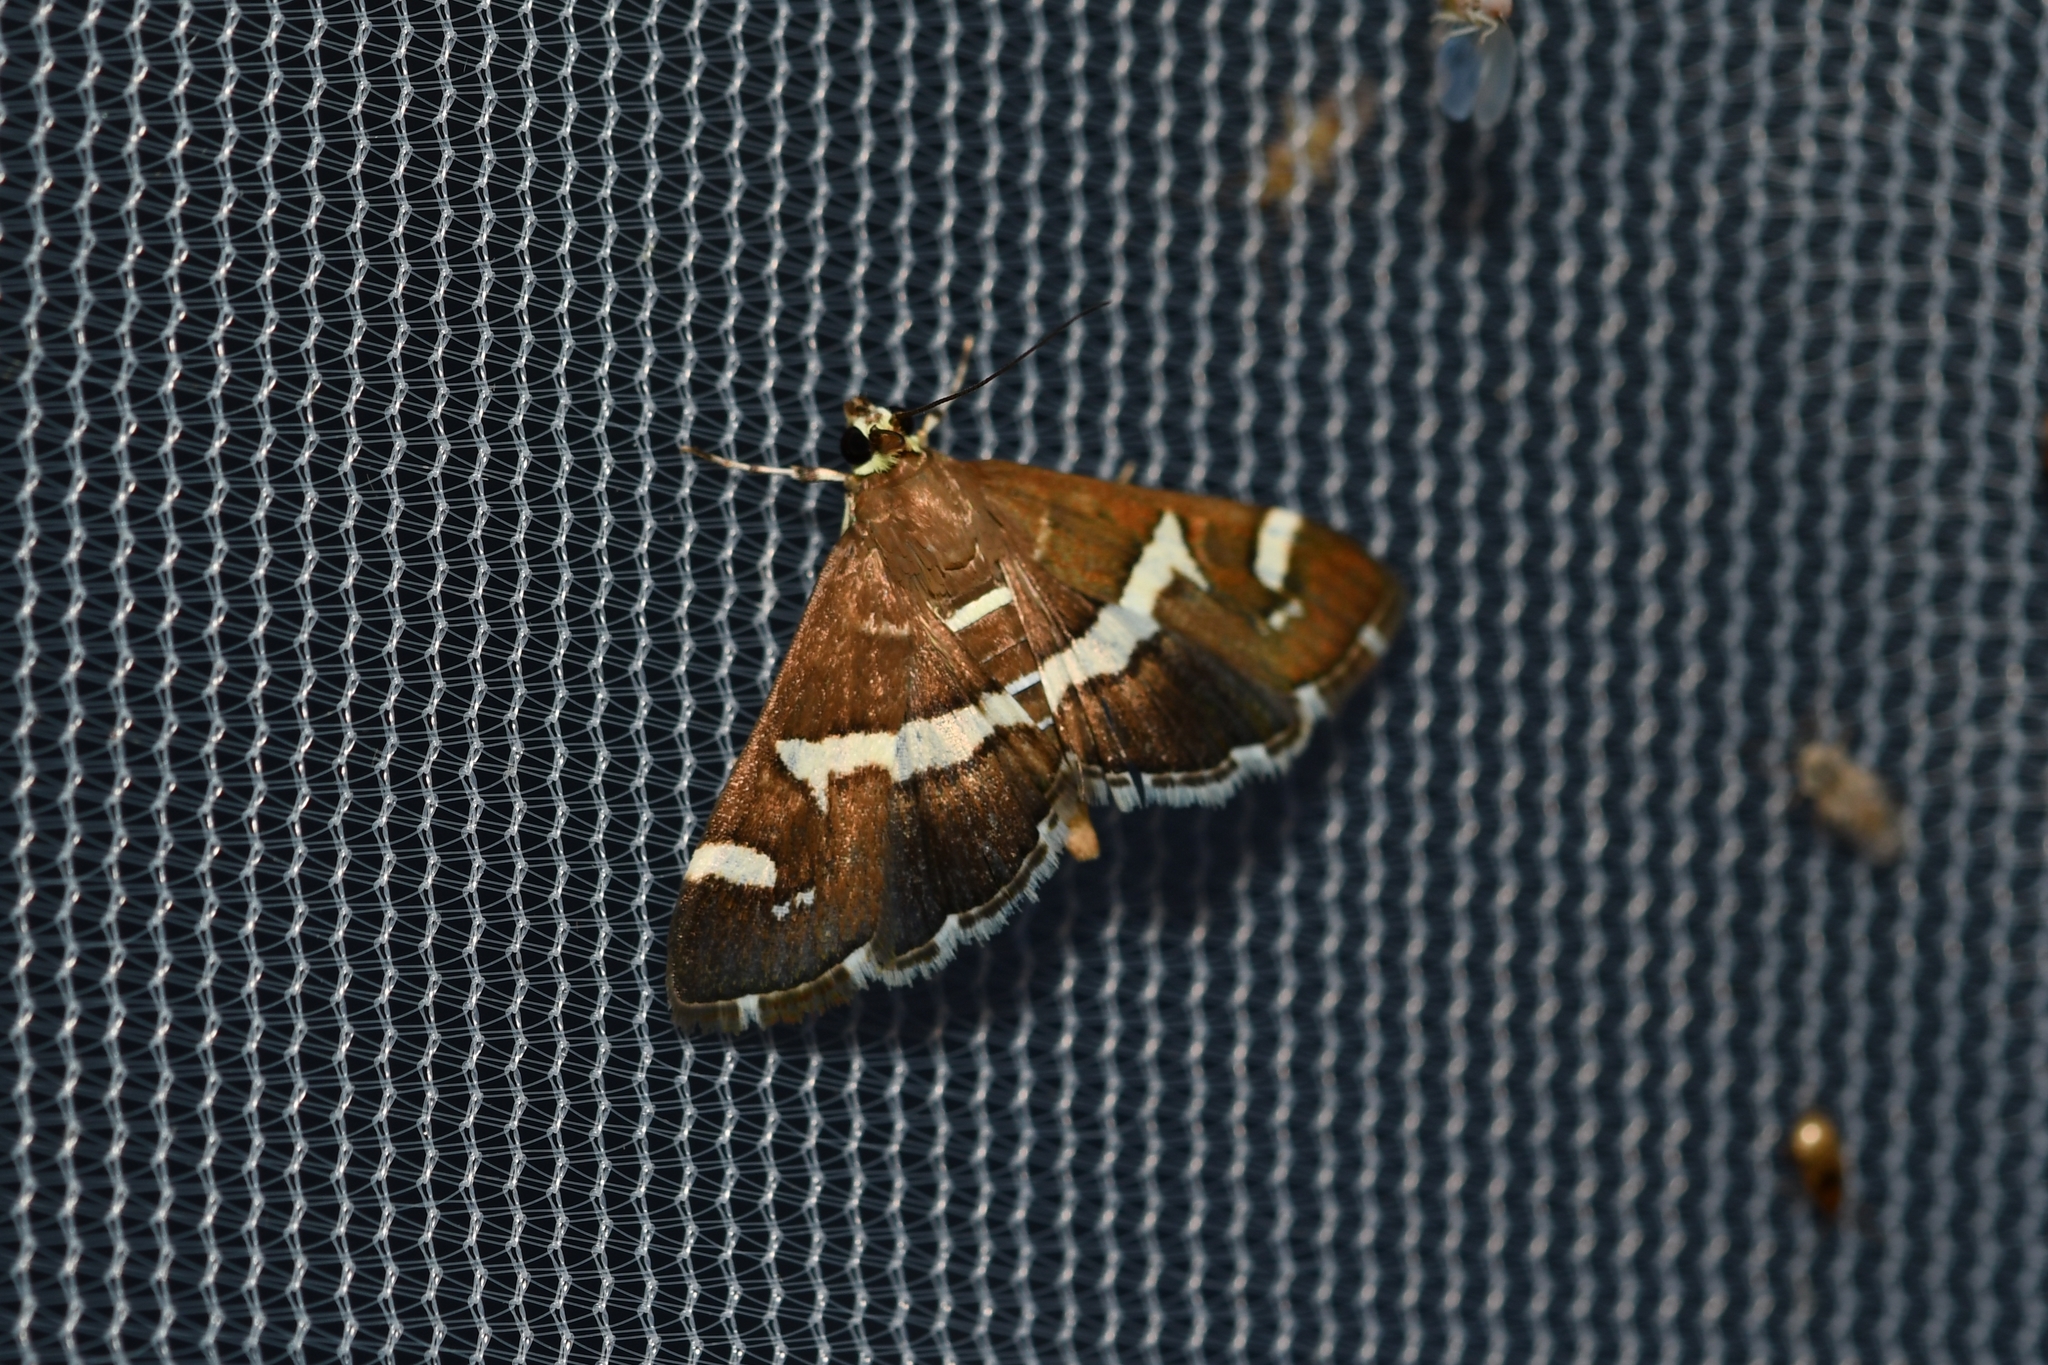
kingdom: Animalia
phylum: Arthropoda
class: Insecta
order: Lepidoptera
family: Crambidae
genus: Spoladea
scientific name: Spoladea recurvalis
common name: Beet webworm moth
